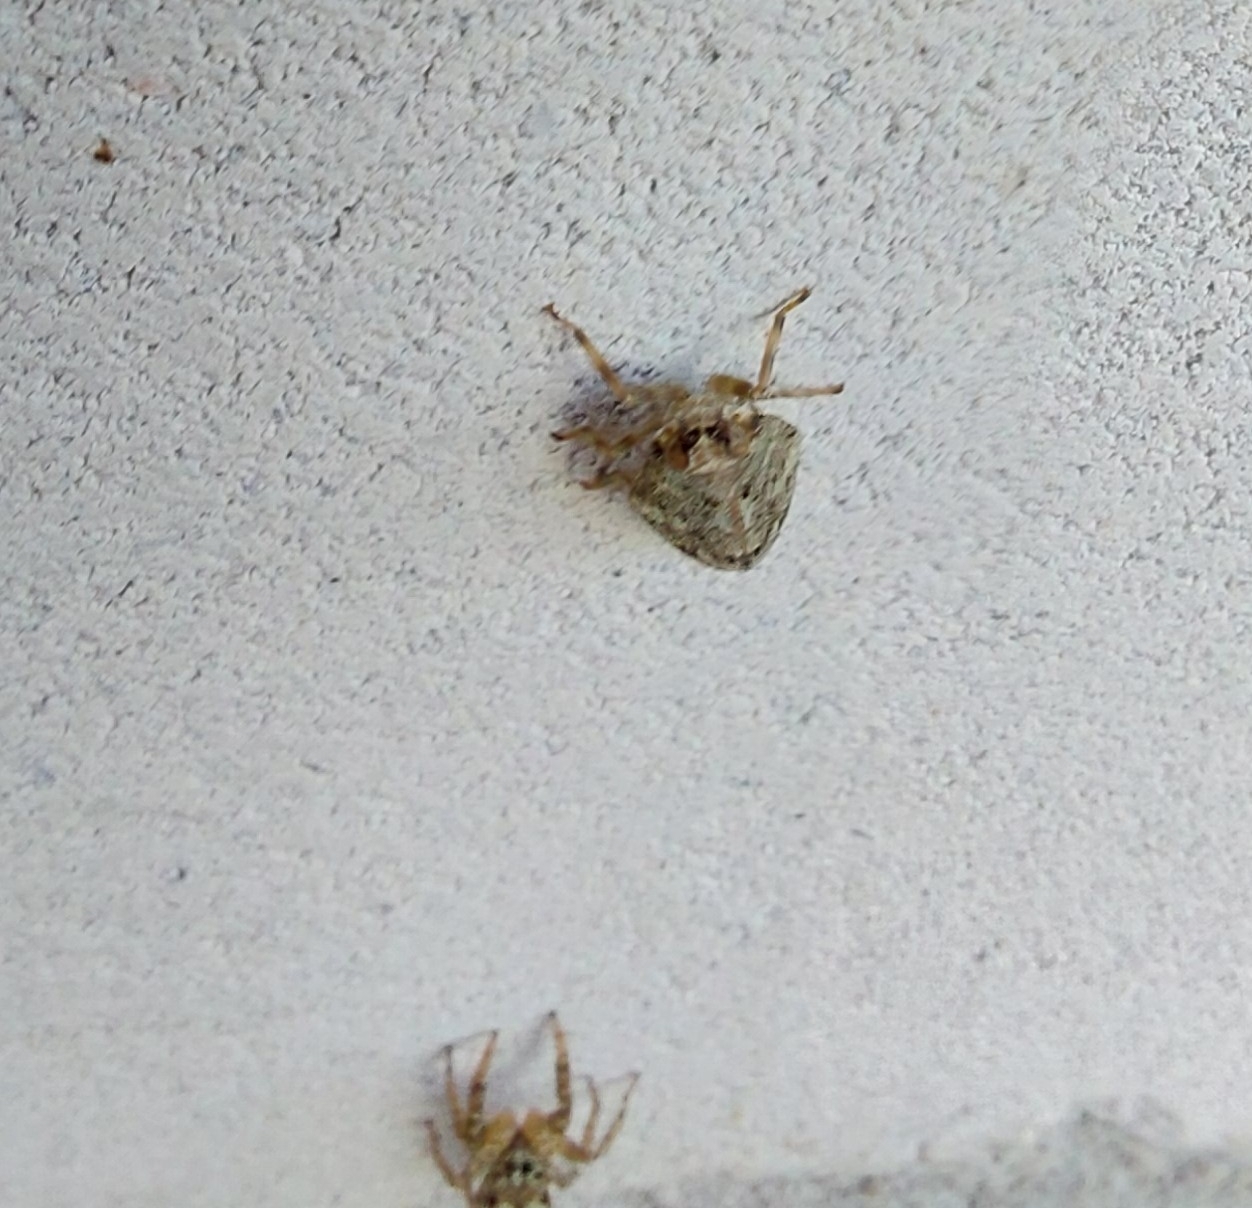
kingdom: Animalia
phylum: Arthropoda
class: Insecta
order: Hemiptera
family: Issidae
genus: Issus
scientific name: Issus coleoptratus
